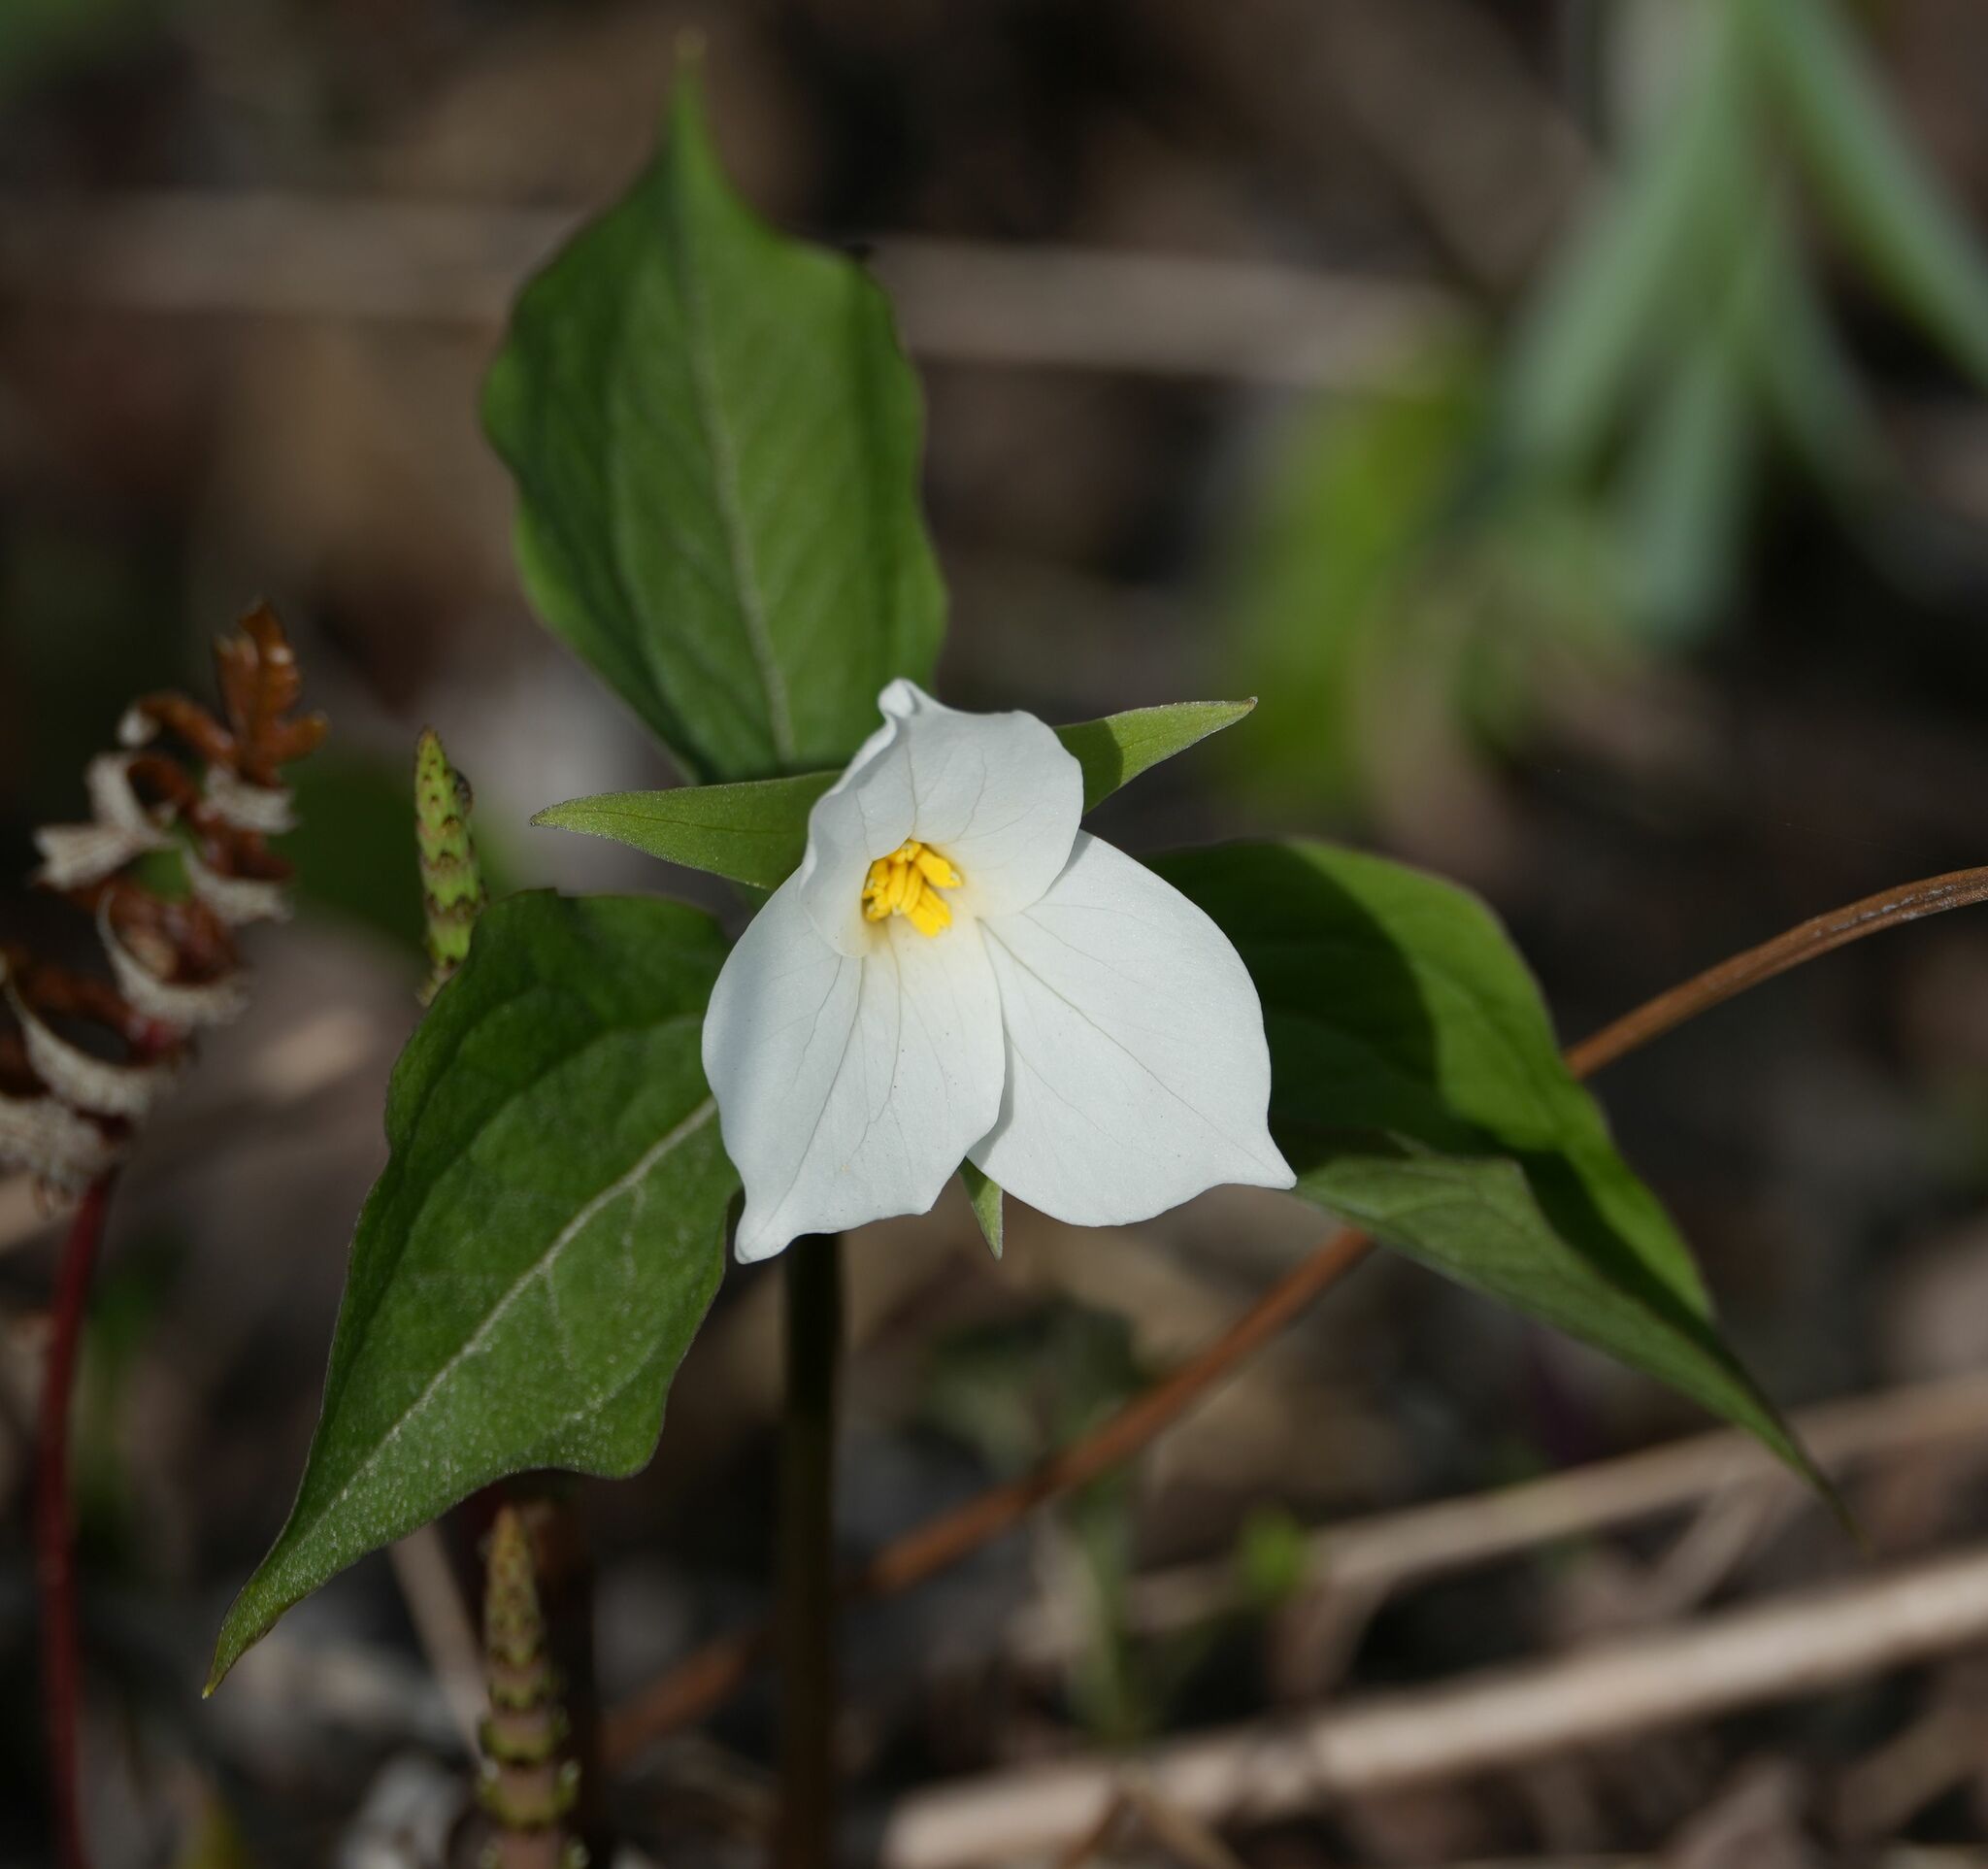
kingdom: Plantae
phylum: Tracheophyta
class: Liliopsida
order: Liliales
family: Melanthiaceae
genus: Trillium
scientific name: Trillium grandiflorum
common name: Great white trillium
